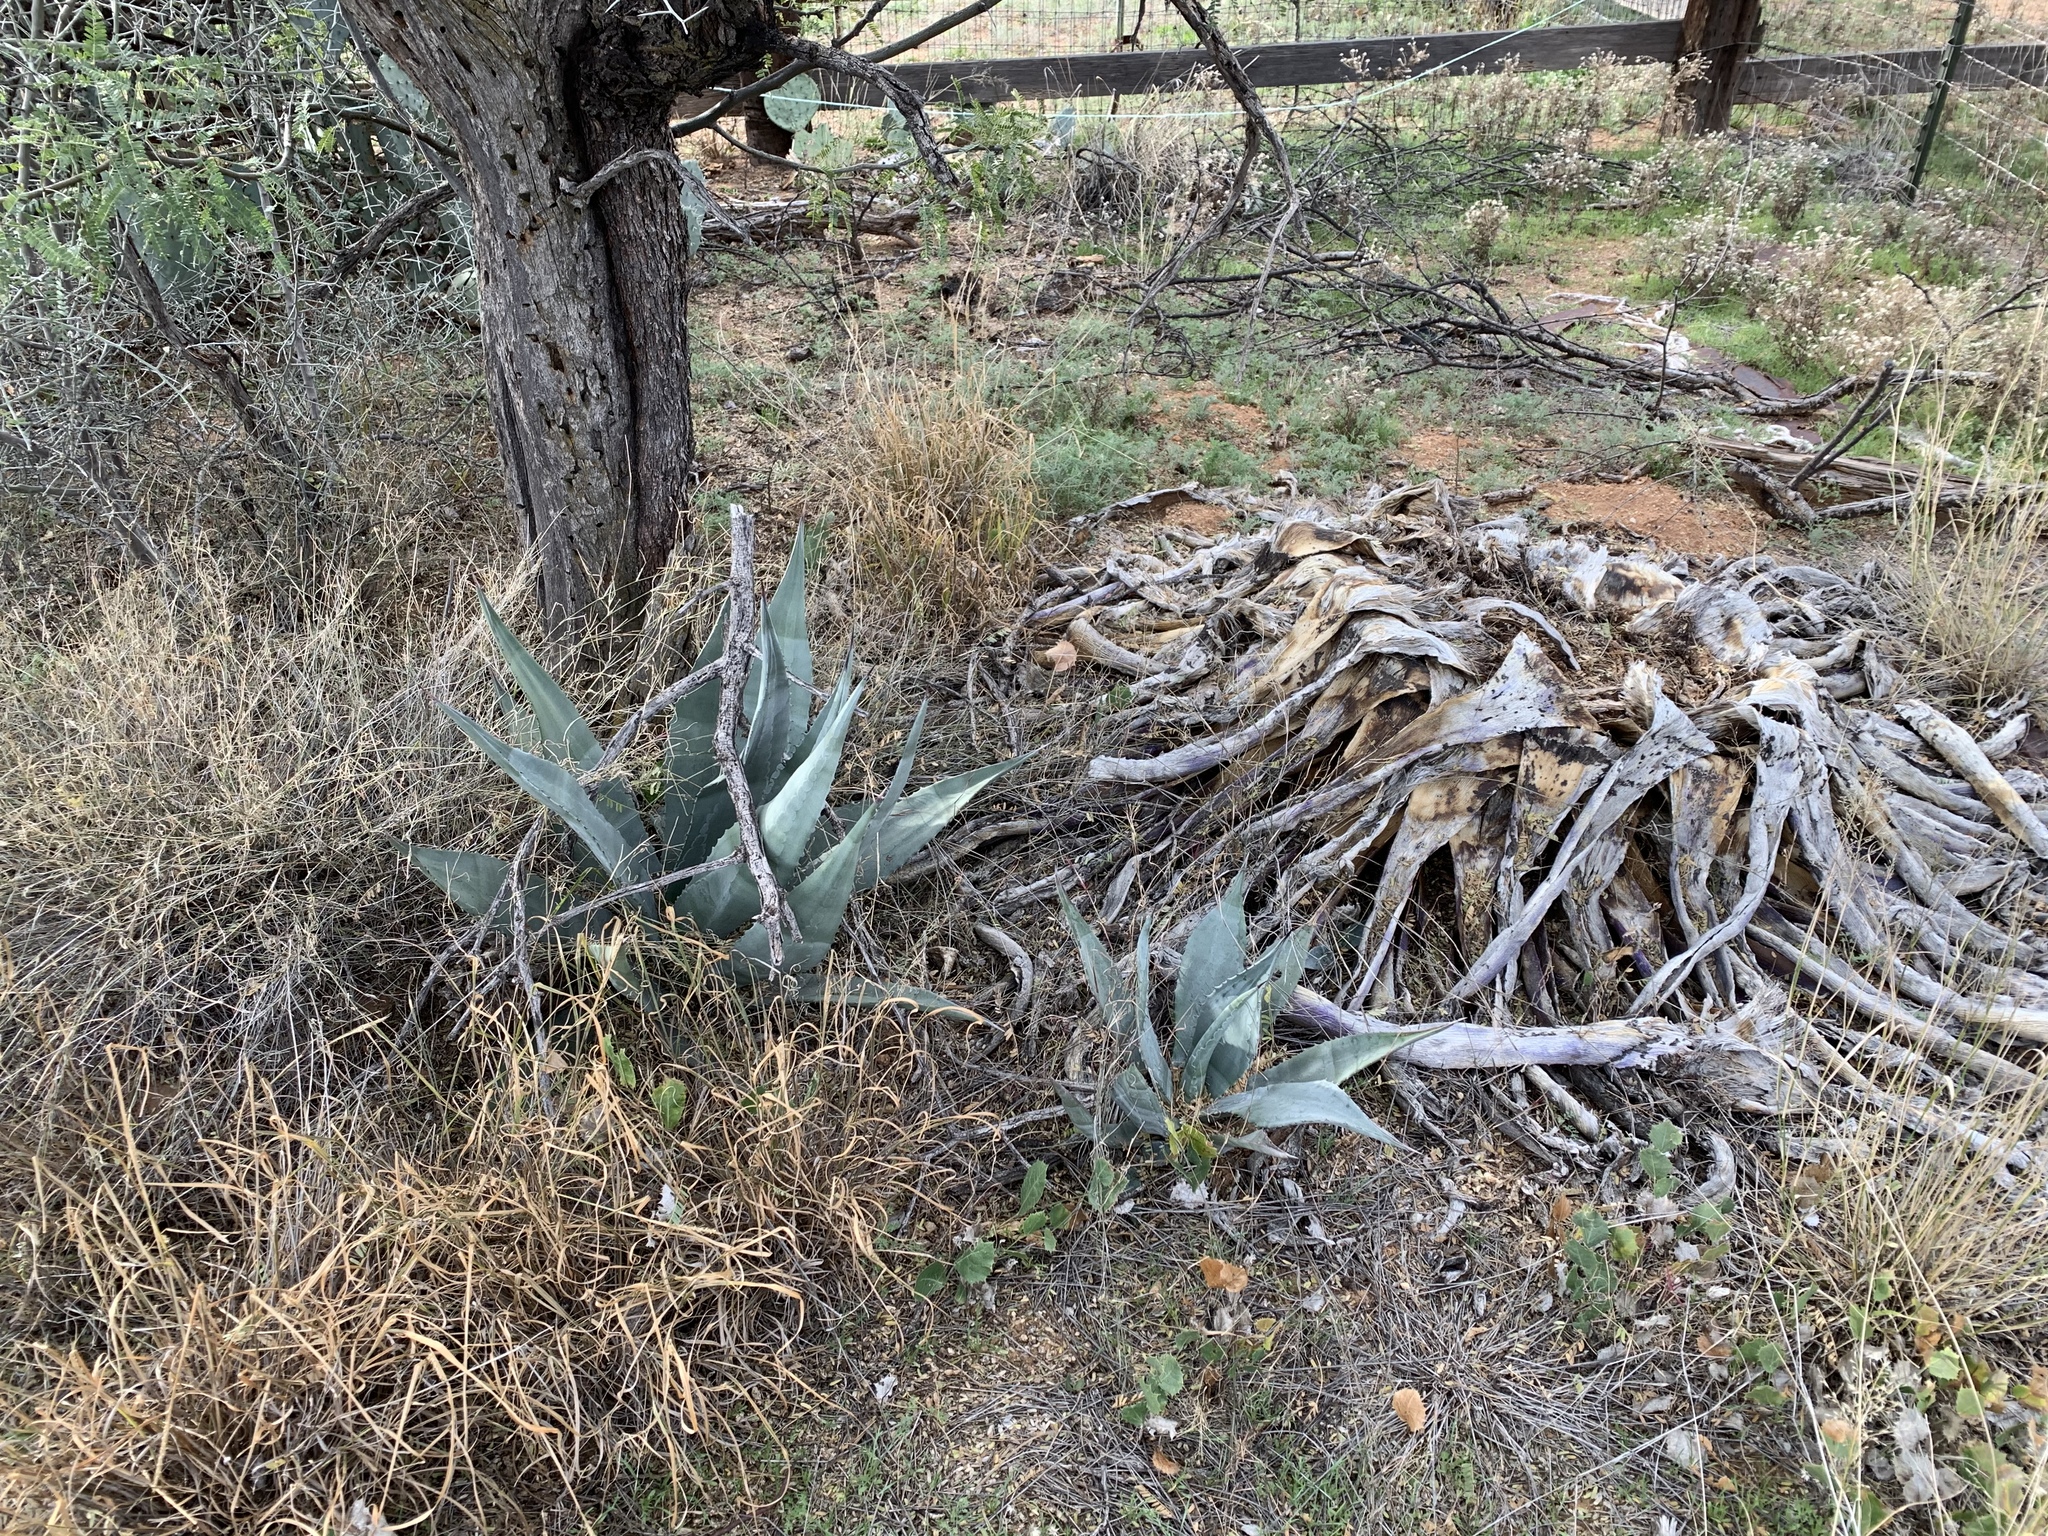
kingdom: Plantae
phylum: Tracheophyta
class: Liliopsida
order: Asparagales
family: Asparagaceae
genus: Agave
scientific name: Agave palmeri
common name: Palmer agave
